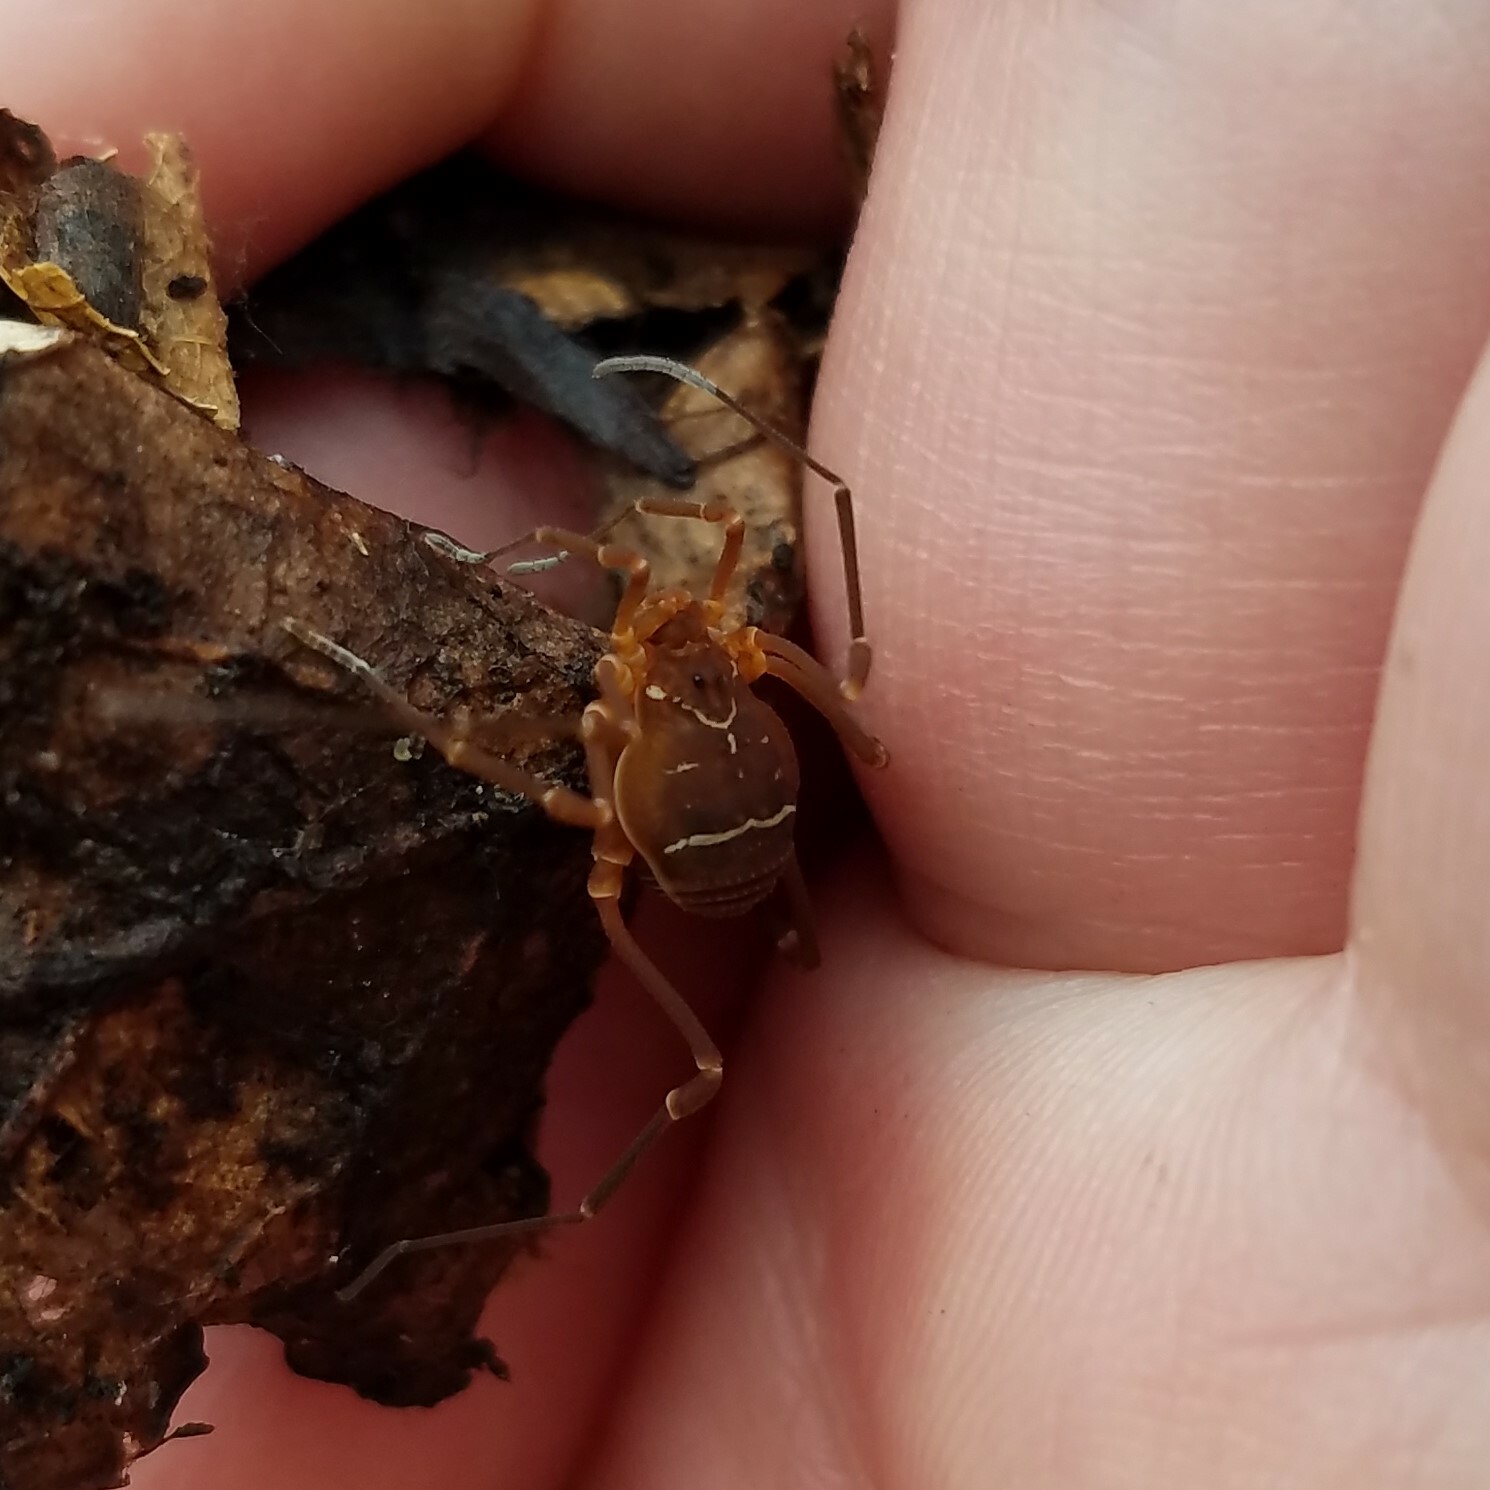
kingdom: Animalia
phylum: Arthropoda
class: Arachnida
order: Opiliones
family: Cosmetidae
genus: Libitioides
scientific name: Libitioides sayi
